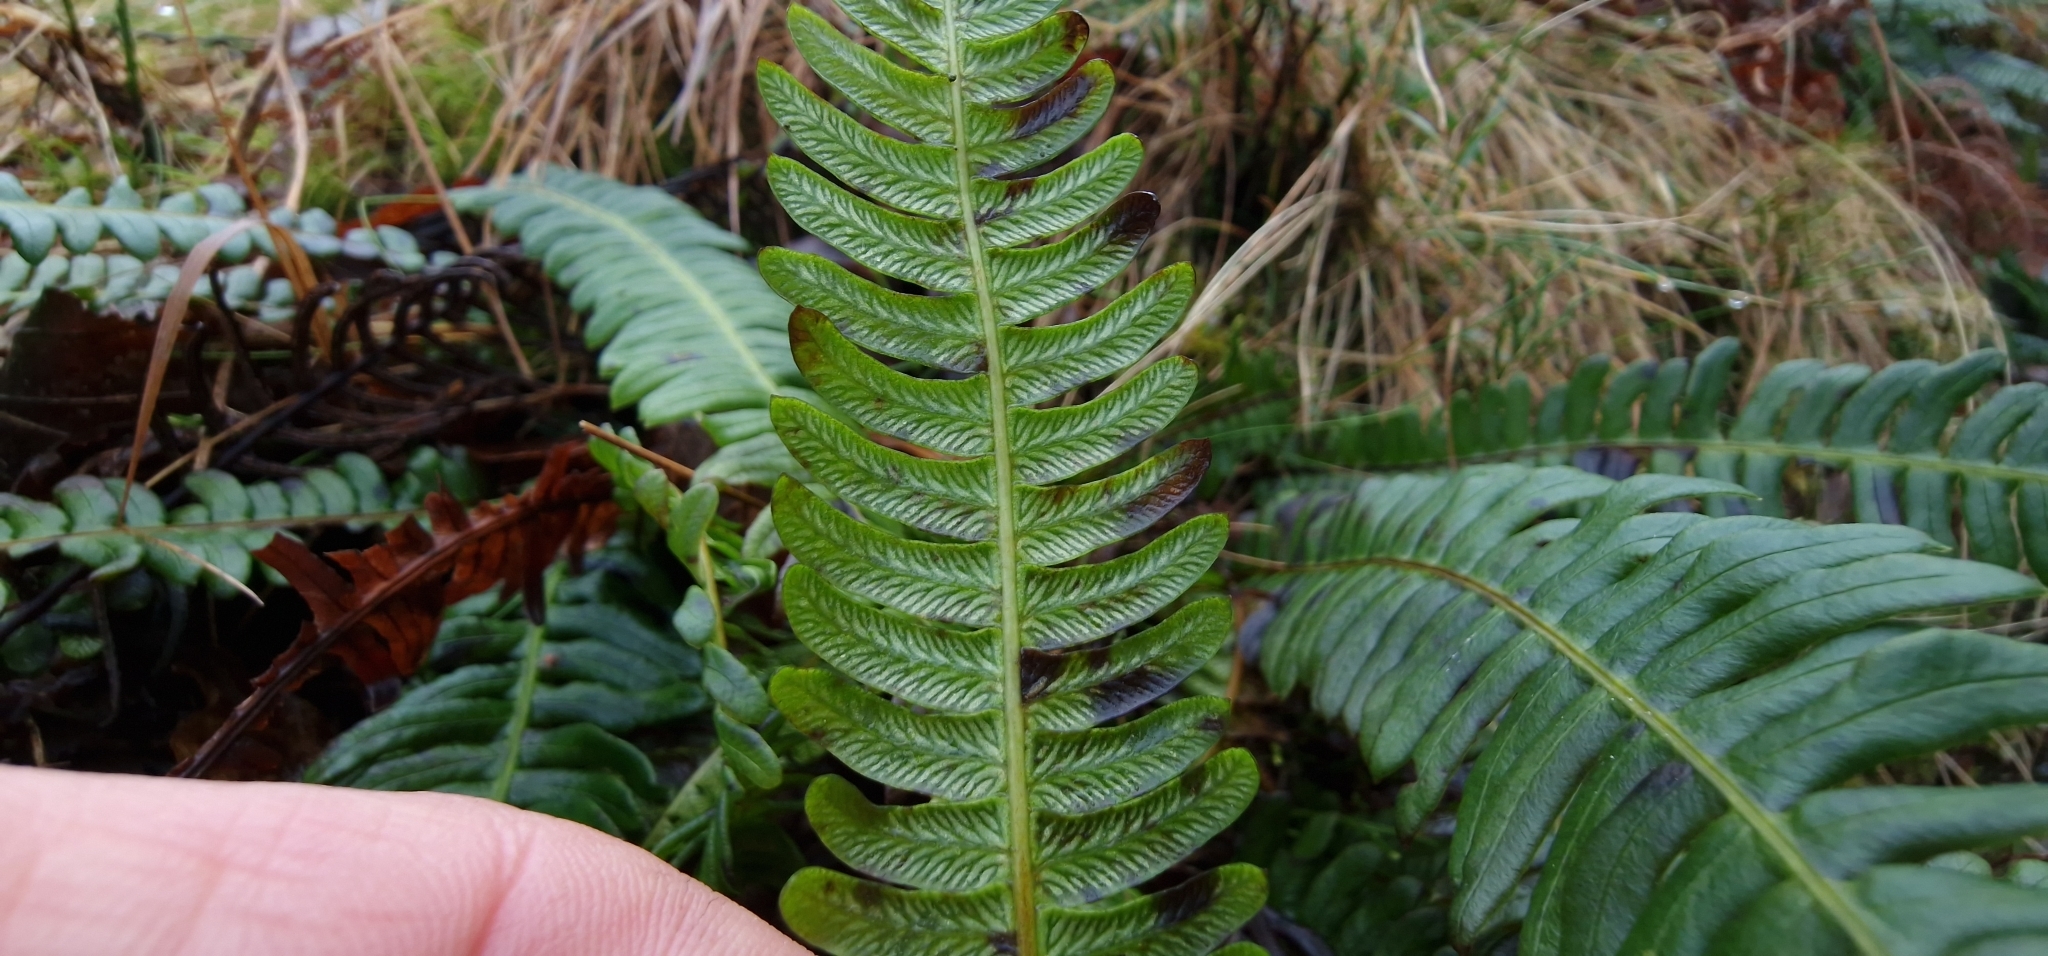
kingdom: Plantae
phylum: Tracheophyta
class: Polypodiopsida
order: Polypodiales
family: Blechnaceae
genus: Struthiopteris
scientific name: Struthiopteris spicant
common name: Deer fern
